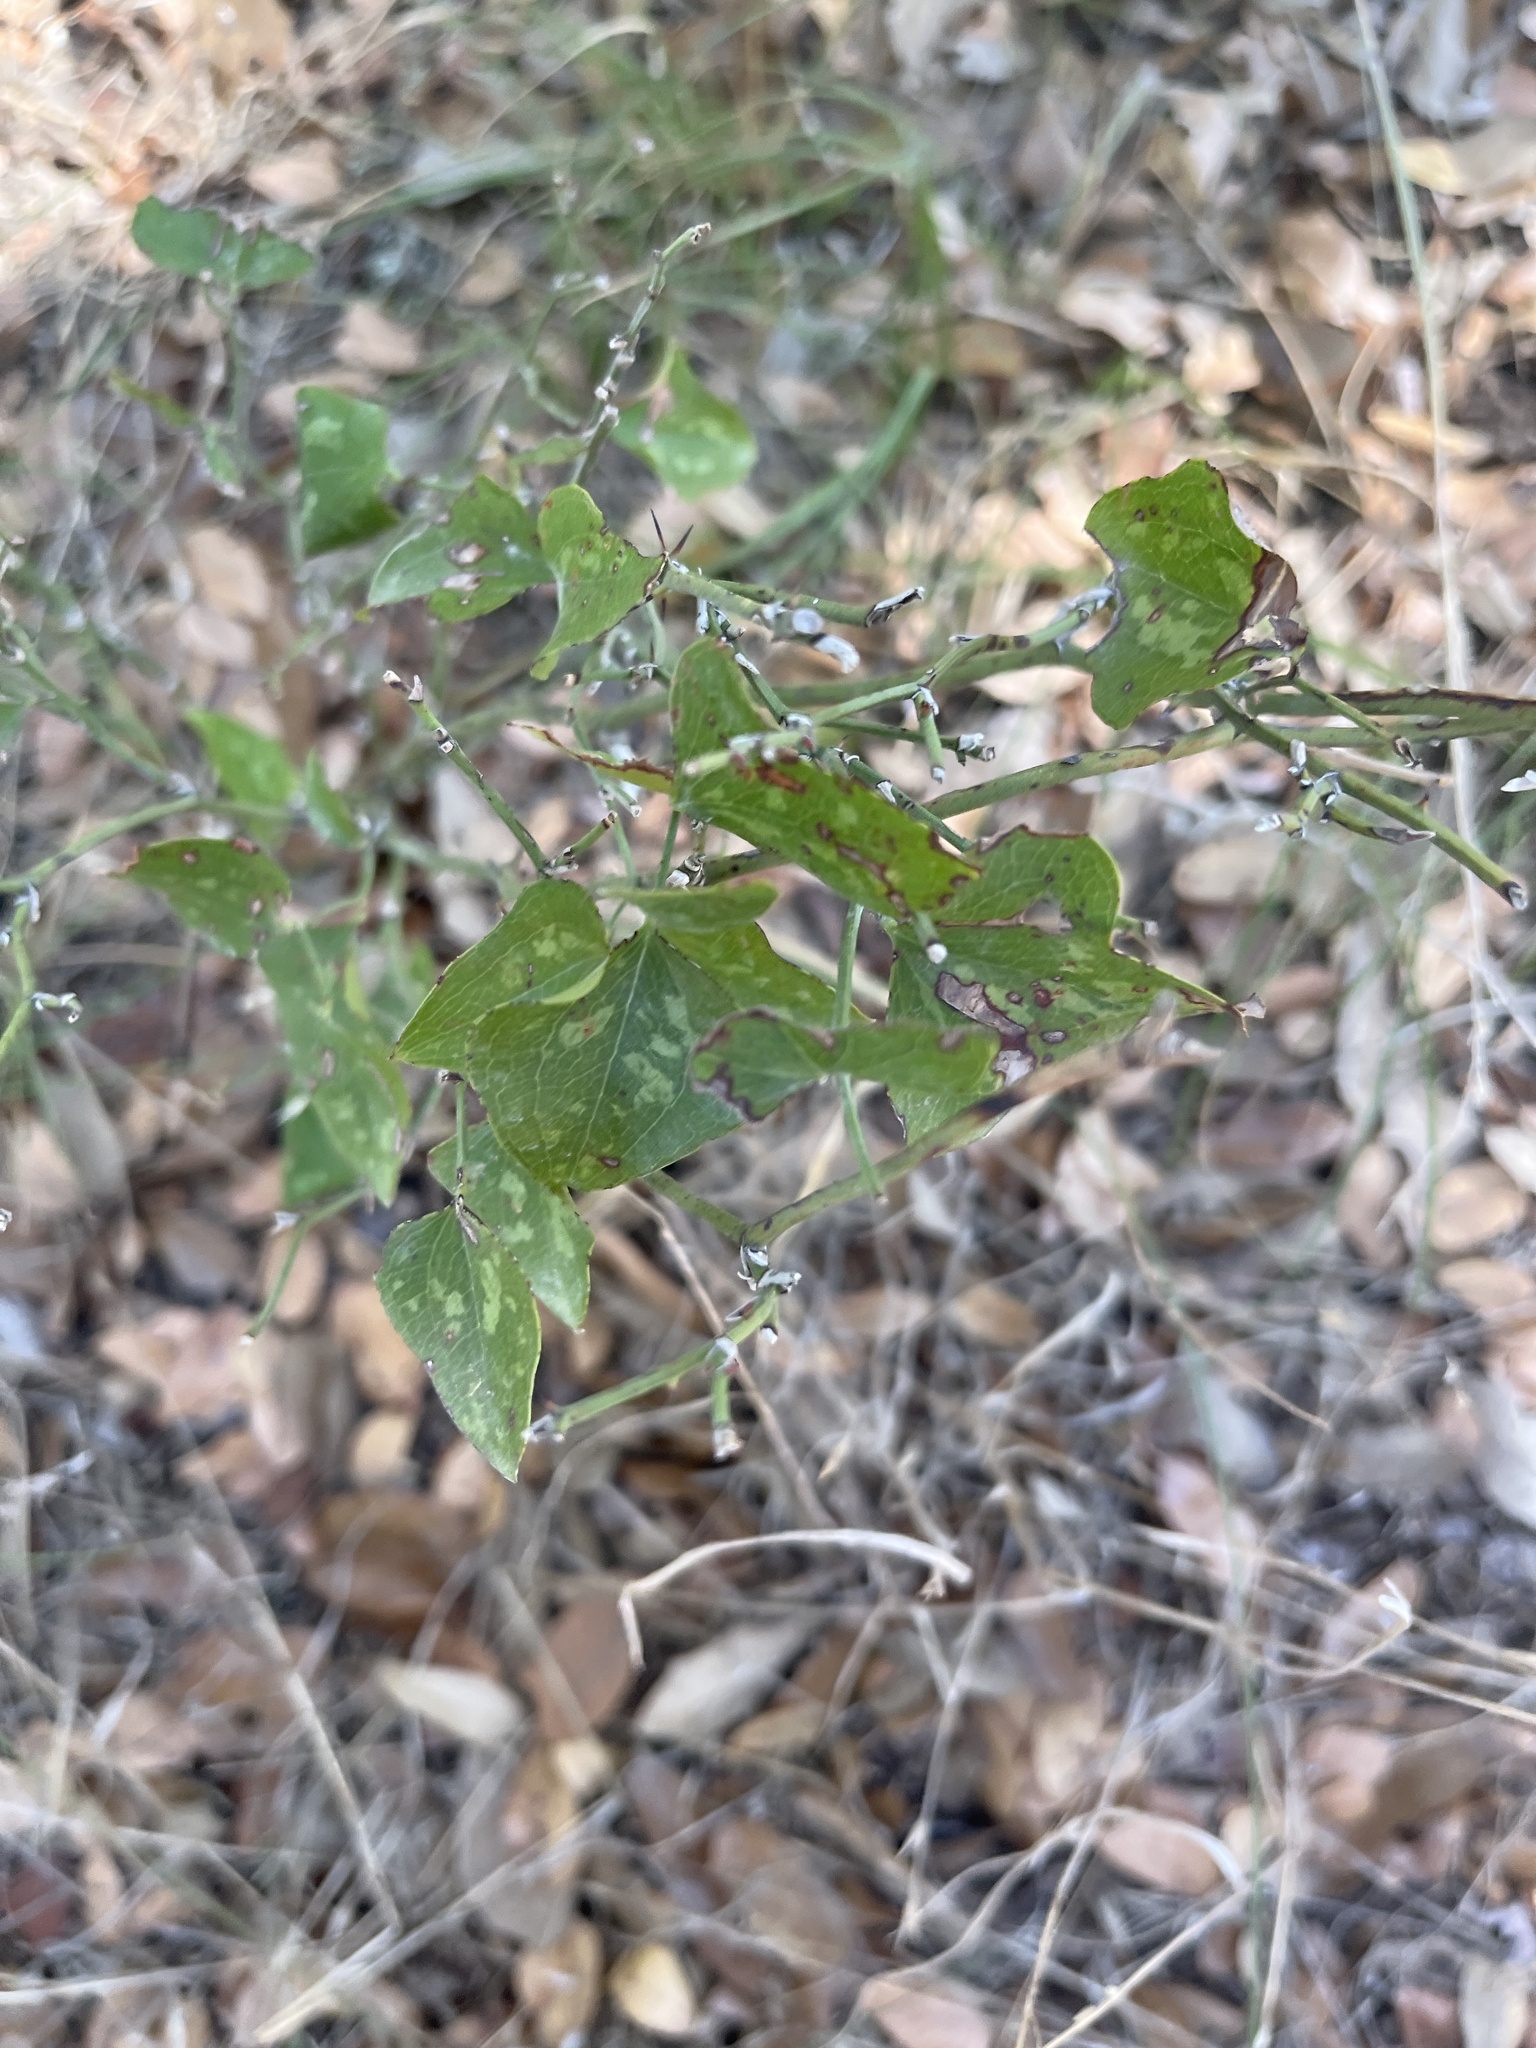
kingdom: Plantae
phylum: Tracheophyta
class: Liliopsida
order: Liliales
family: Smilacaceae
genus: Smilax
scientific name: Smilax bona-nox
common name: Catbrier
